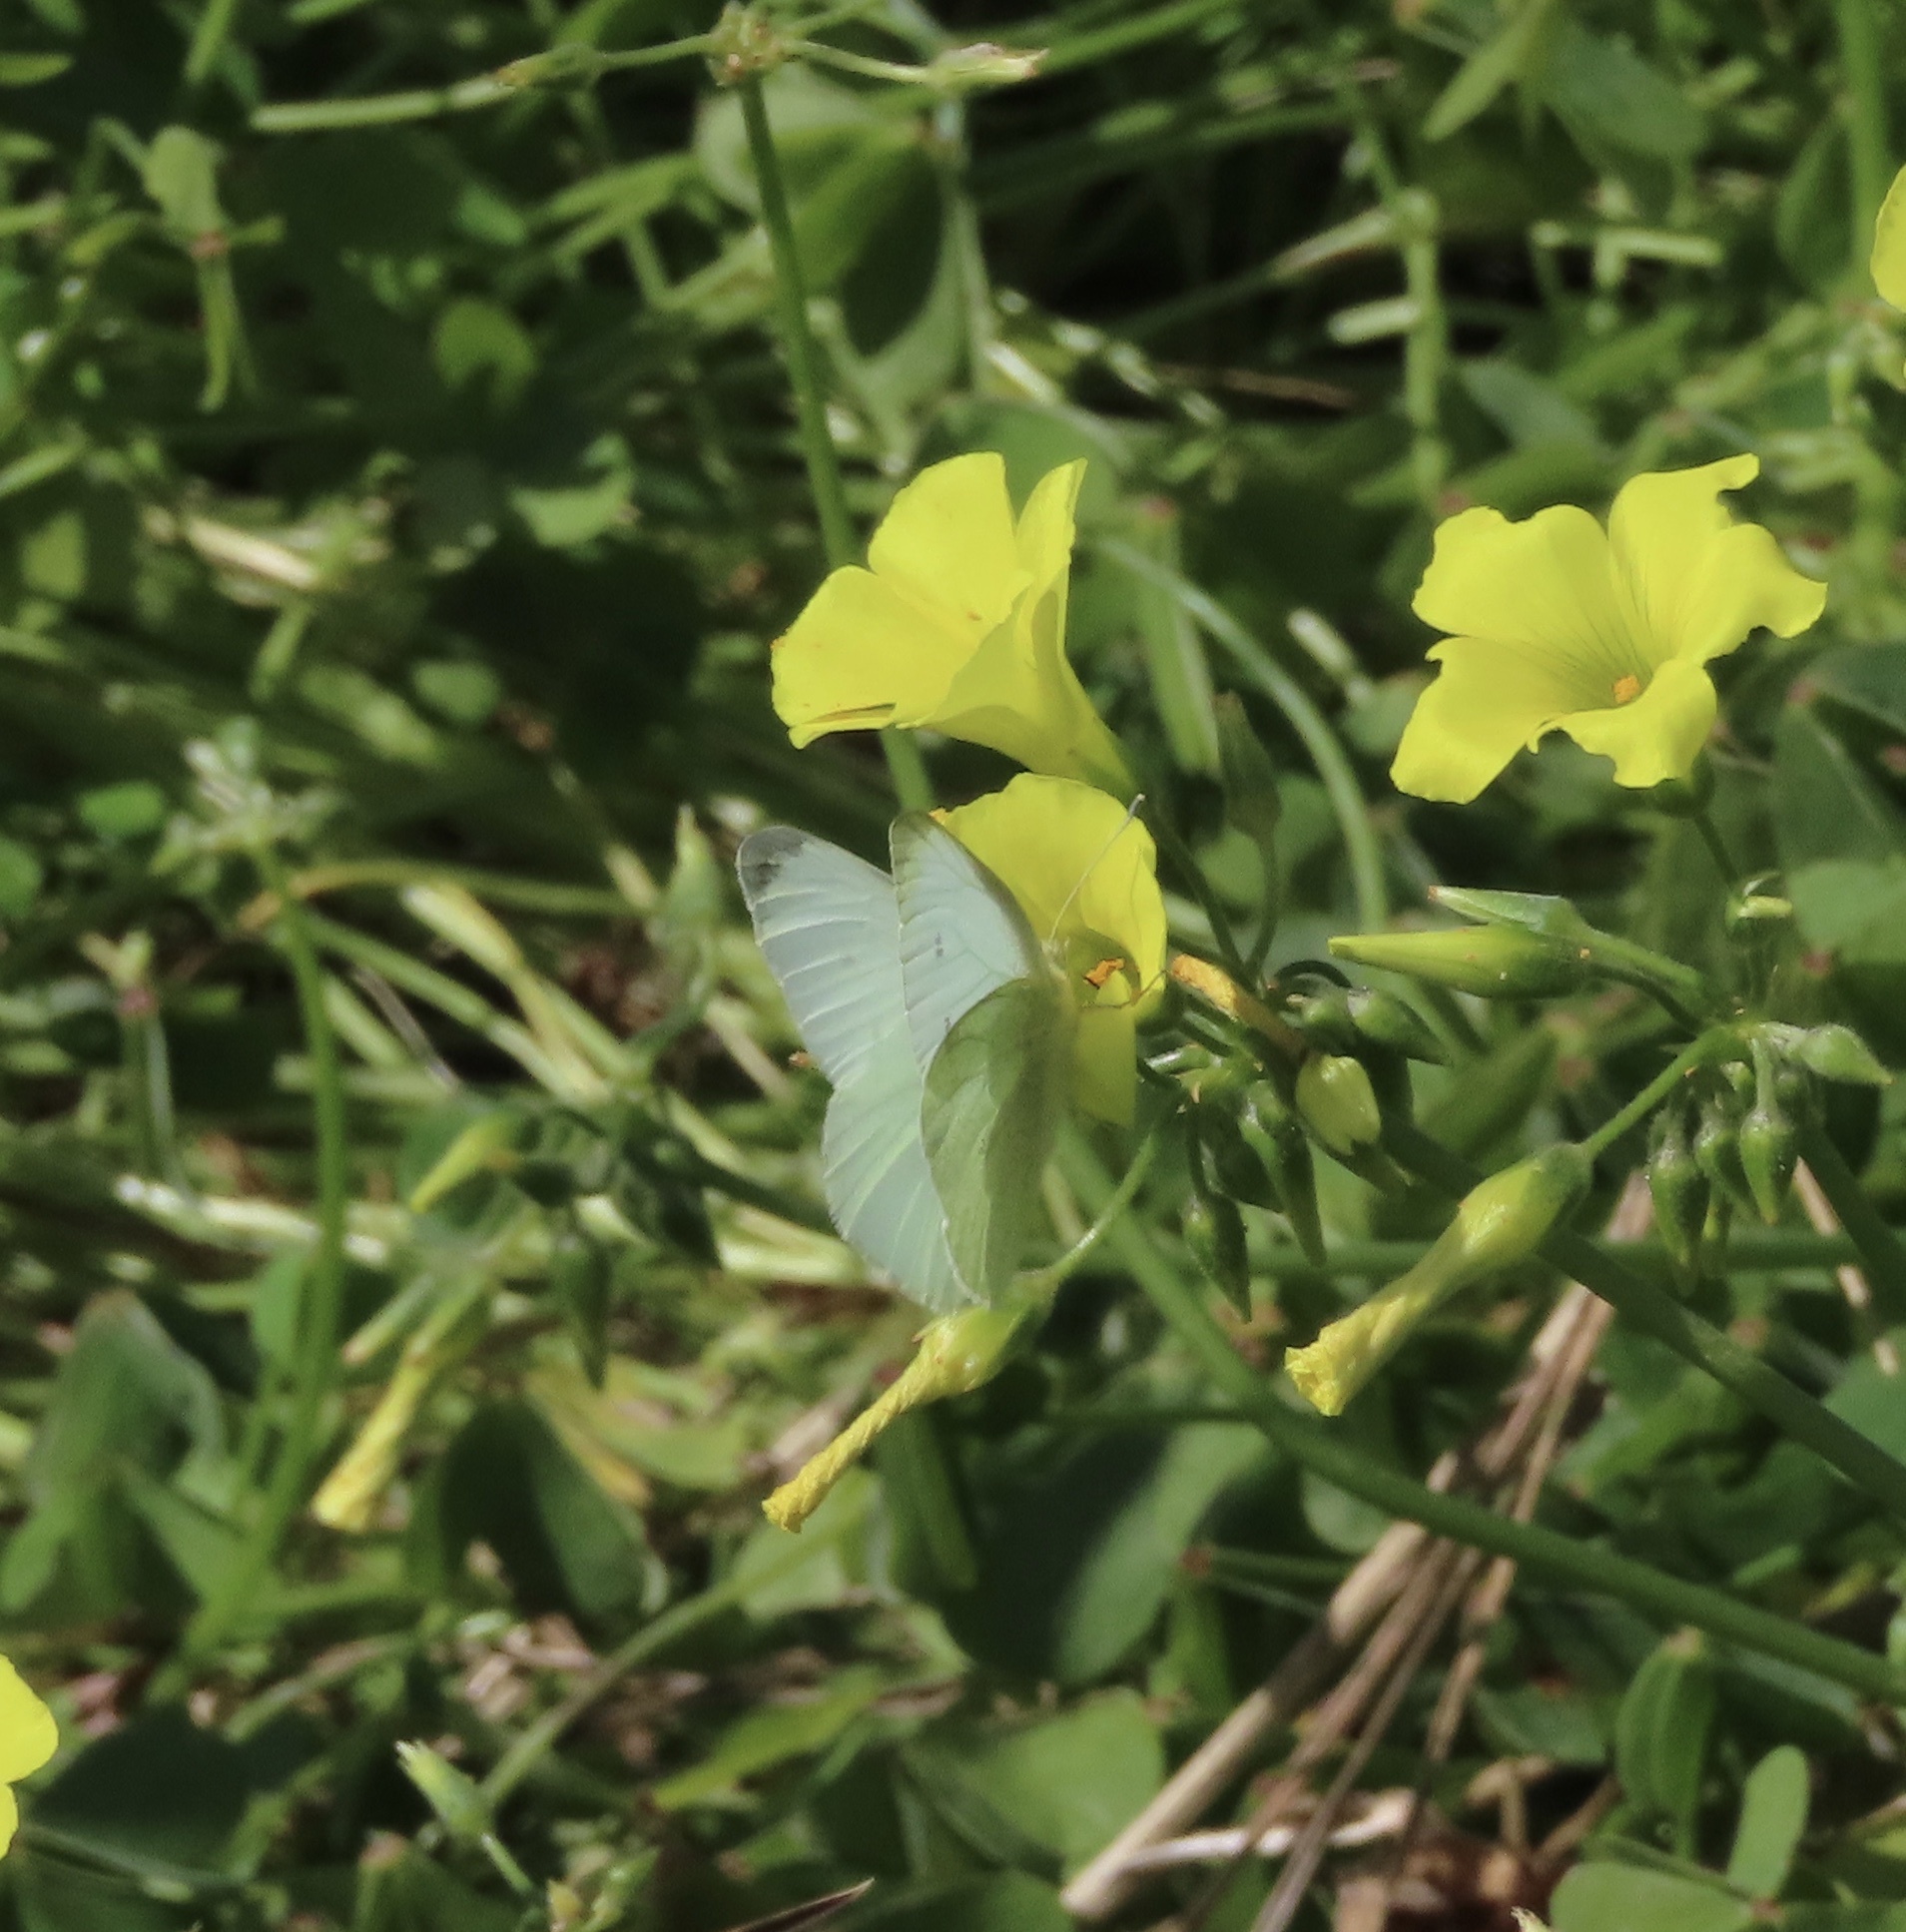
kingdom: Animalia
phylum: Arthropoda
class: Insecta
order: Lepidoptera
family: Pieridae
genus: Pieris
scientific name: Pieris rapae
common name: Small white
